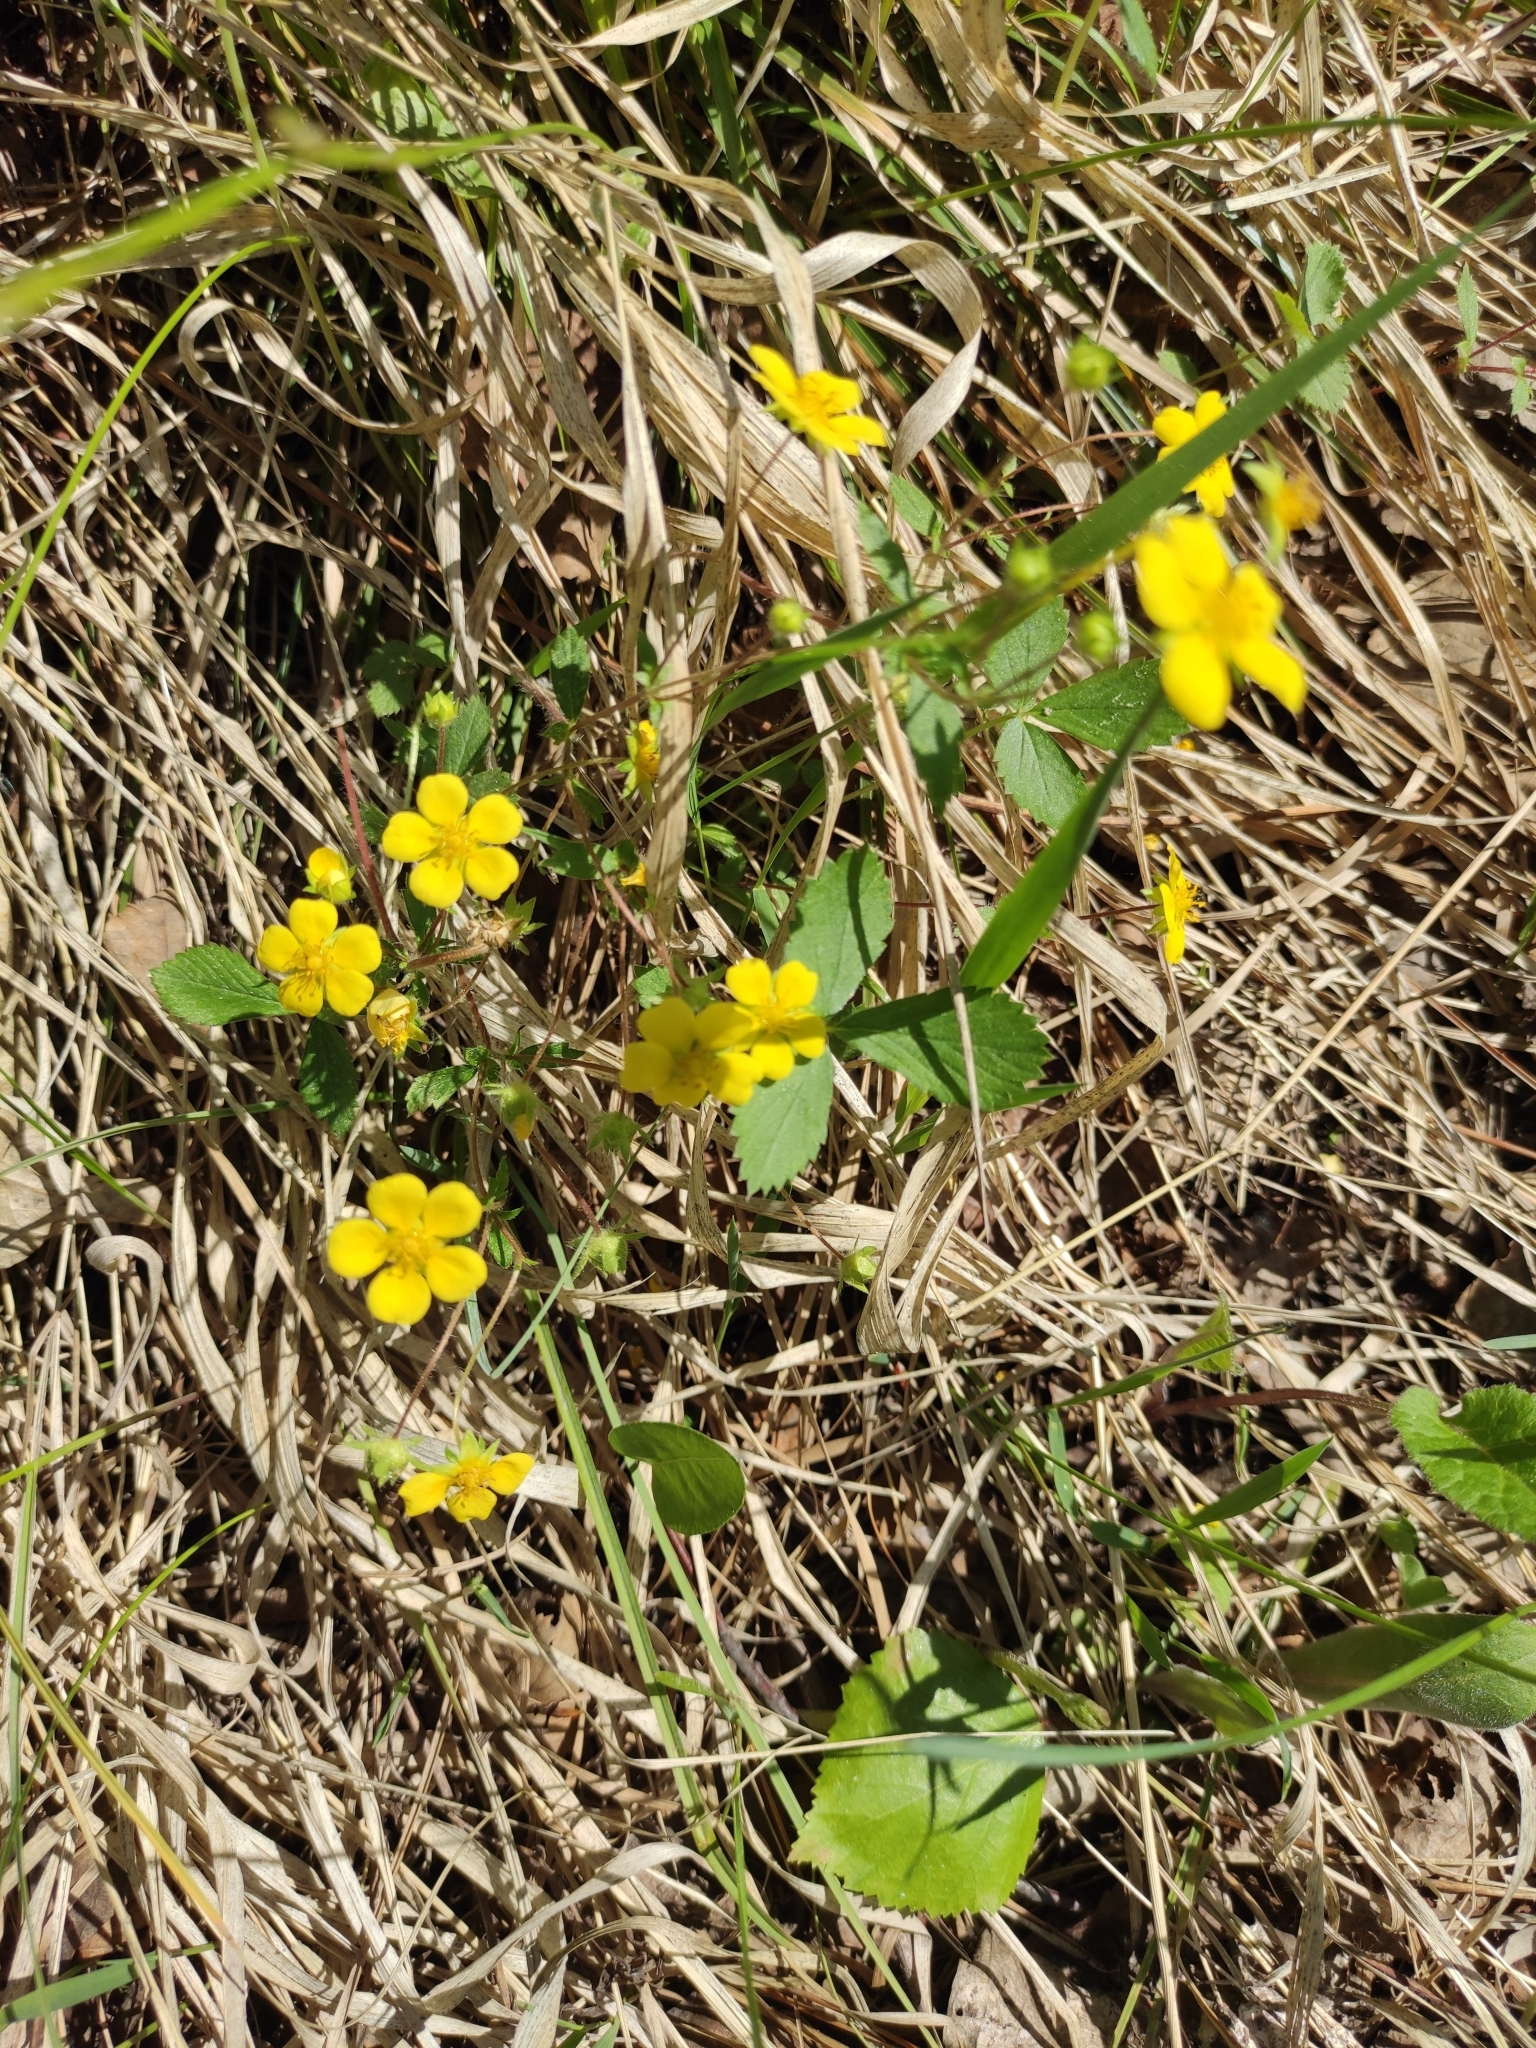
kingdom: Plantae
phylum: Tracheophyta
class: Magnoliopsida
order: Rosales
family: Rosaceae
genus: Potentilla
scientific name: Potentilla fragarioides
